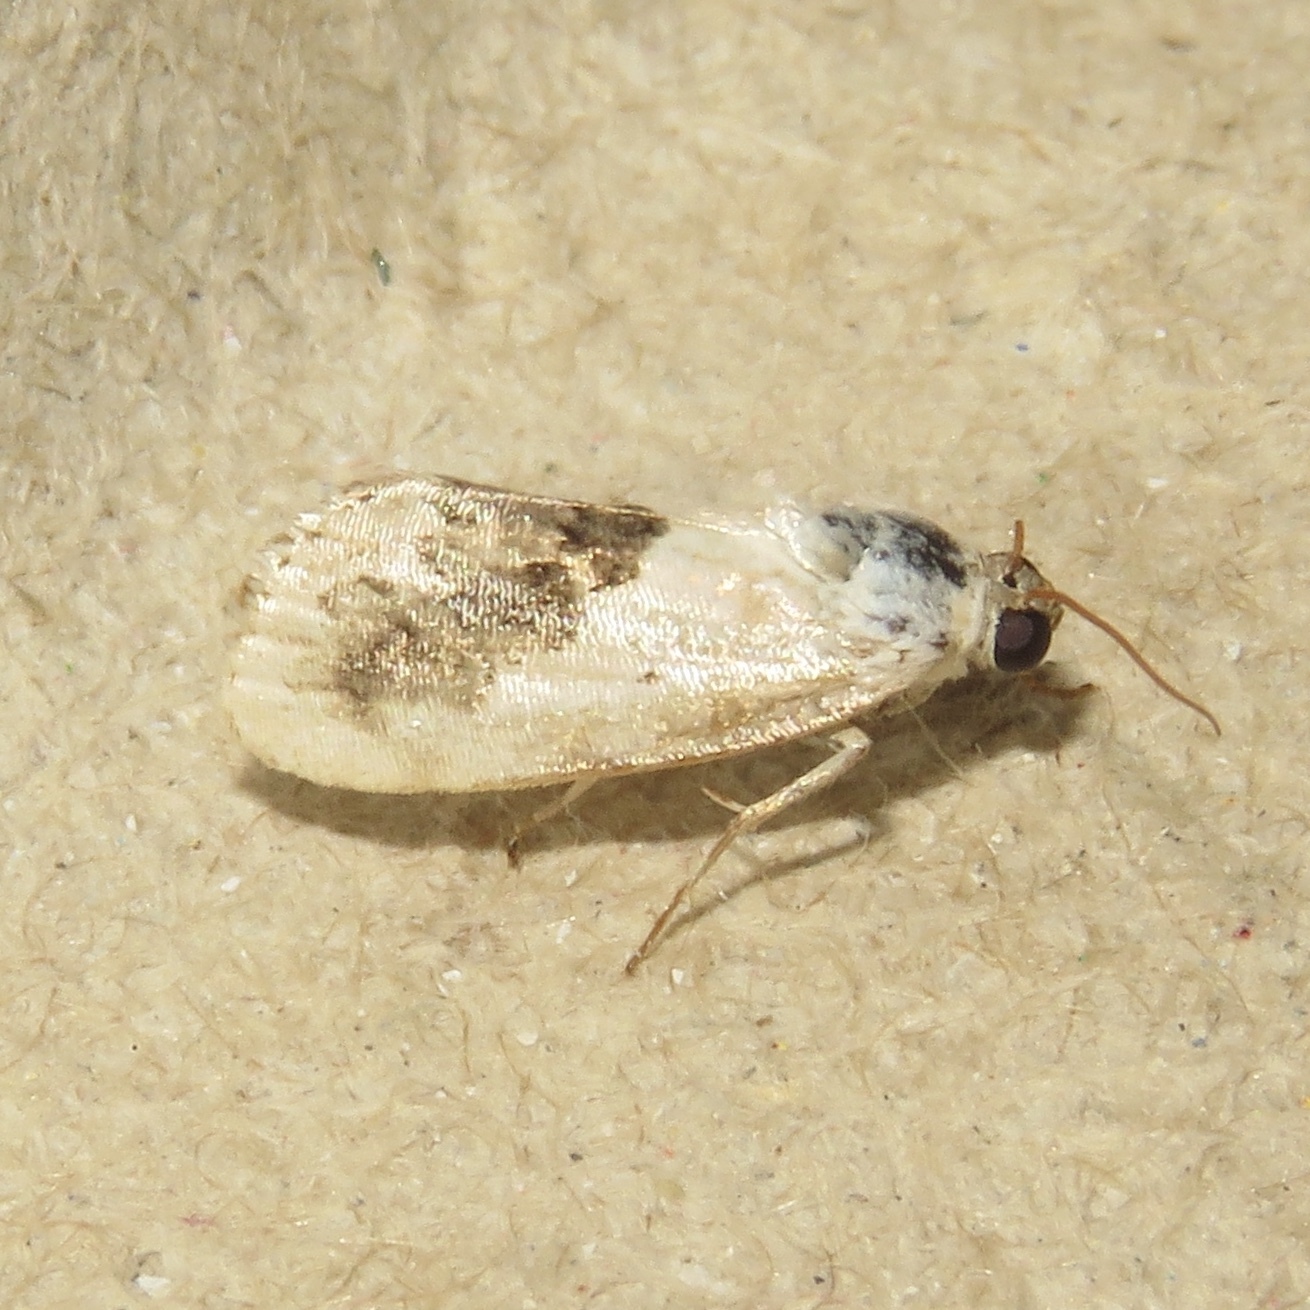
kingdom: Animalia
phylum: Arthropoda
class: Insecta
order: Lepidoptera
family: Noctuidae
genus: Acontia
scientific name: Acontia erastrioides
